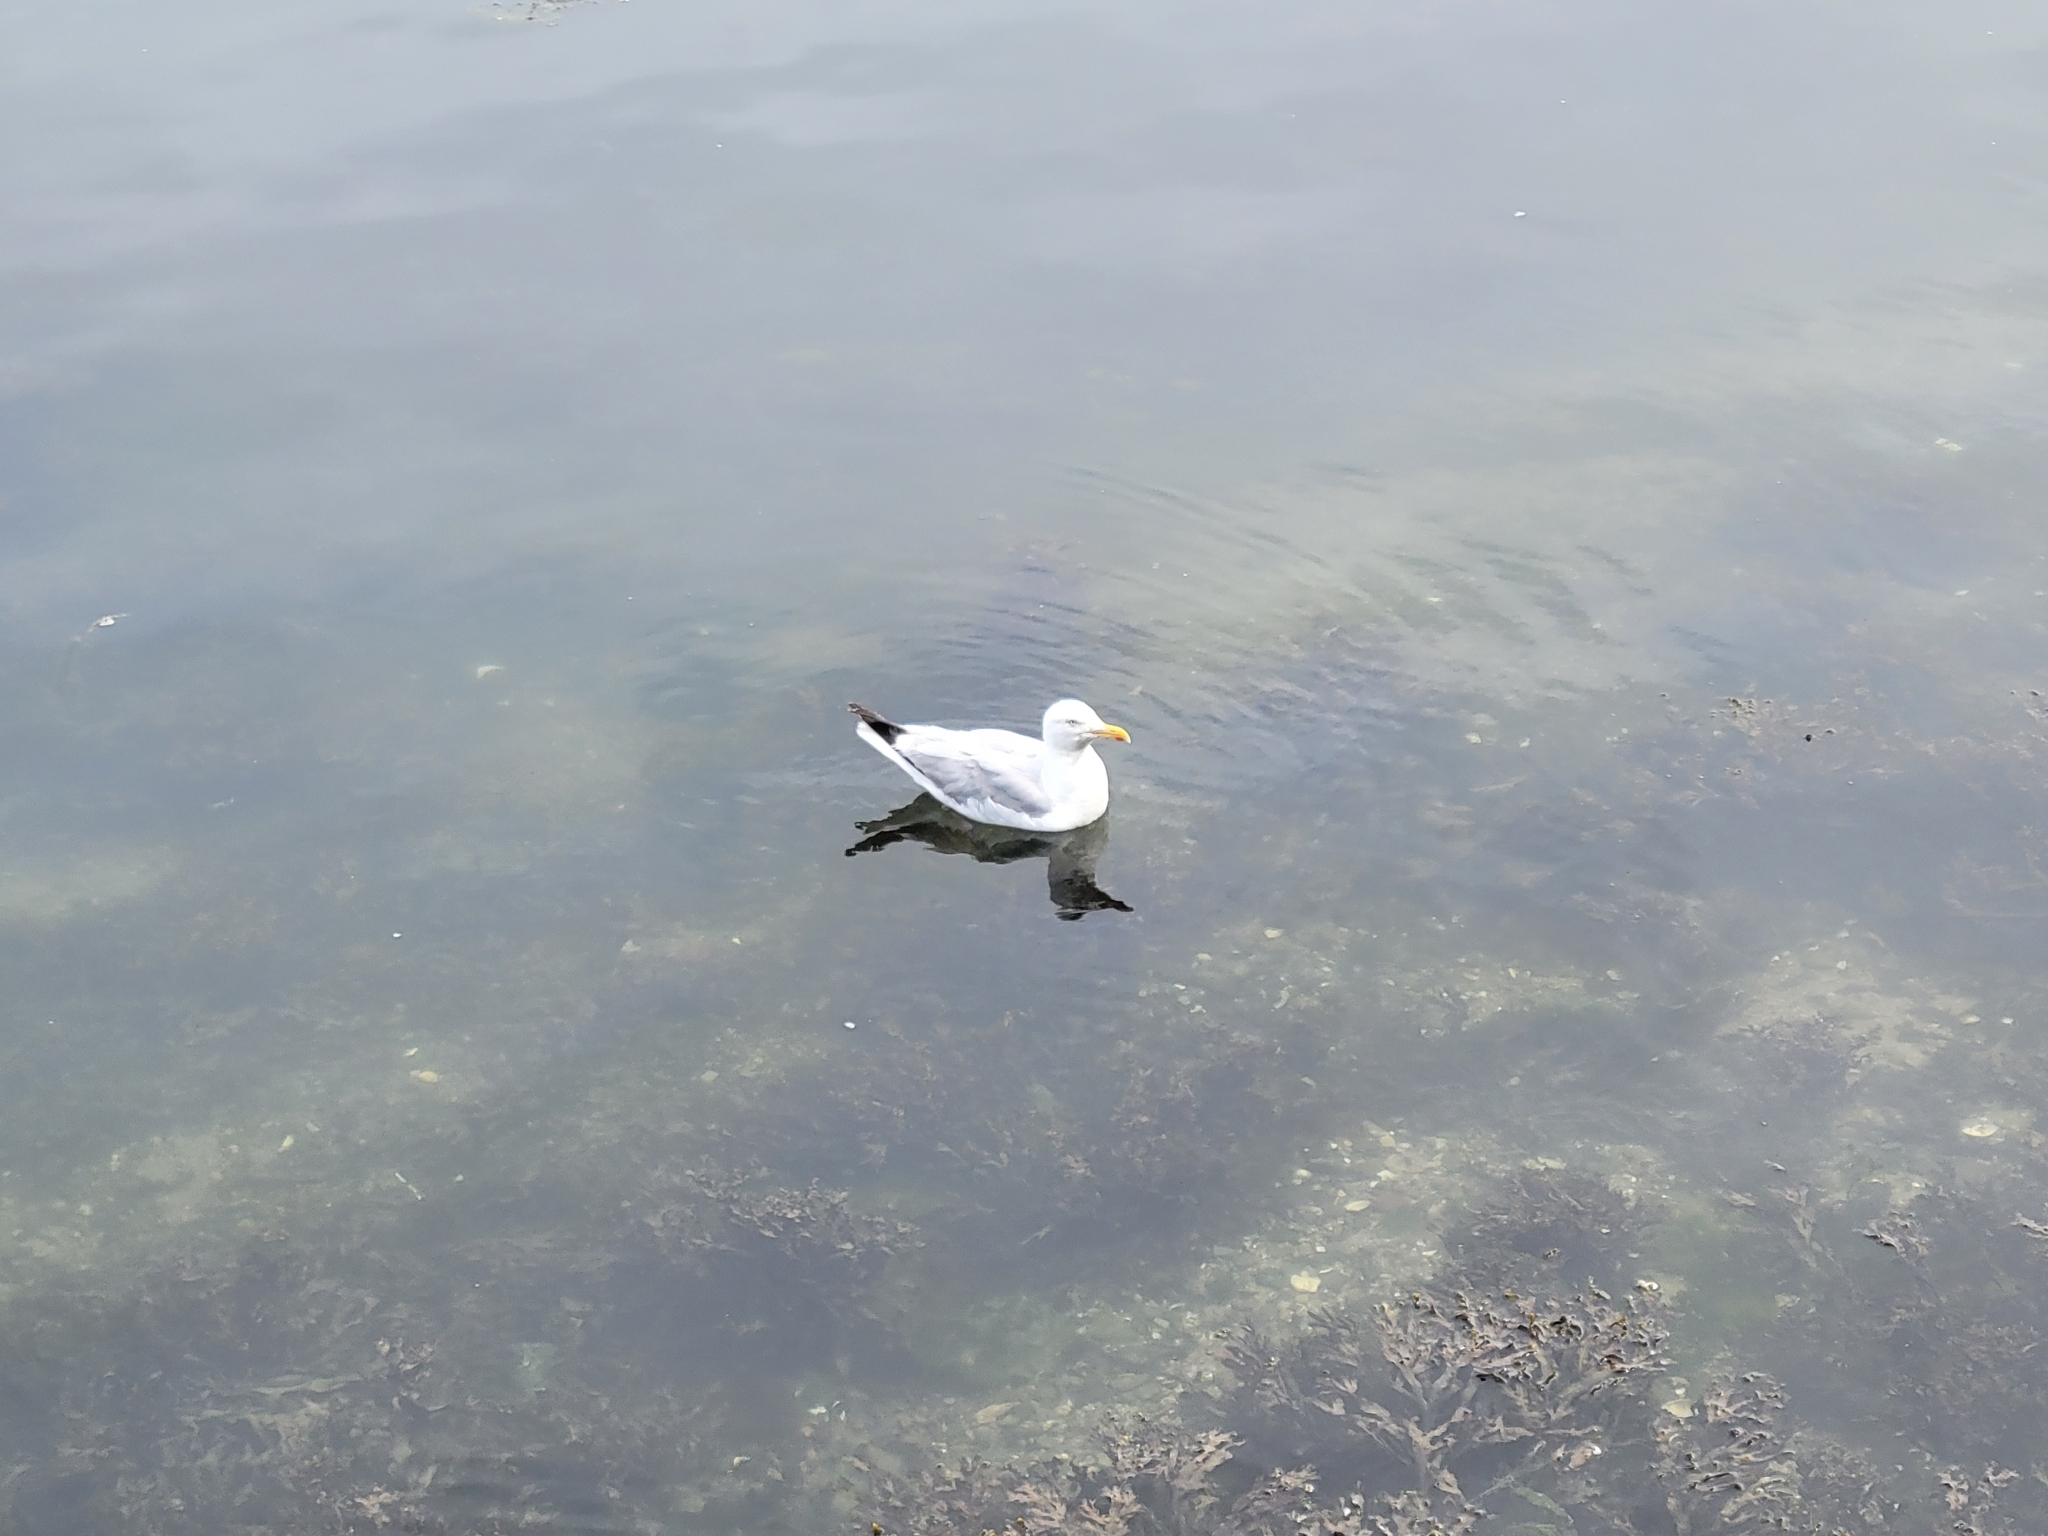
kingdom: Animalia
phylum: Chordata
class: Aves
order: Charadriiformes
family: Laridae
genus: Larus
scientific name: Larus argentatus
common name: Herring gull
